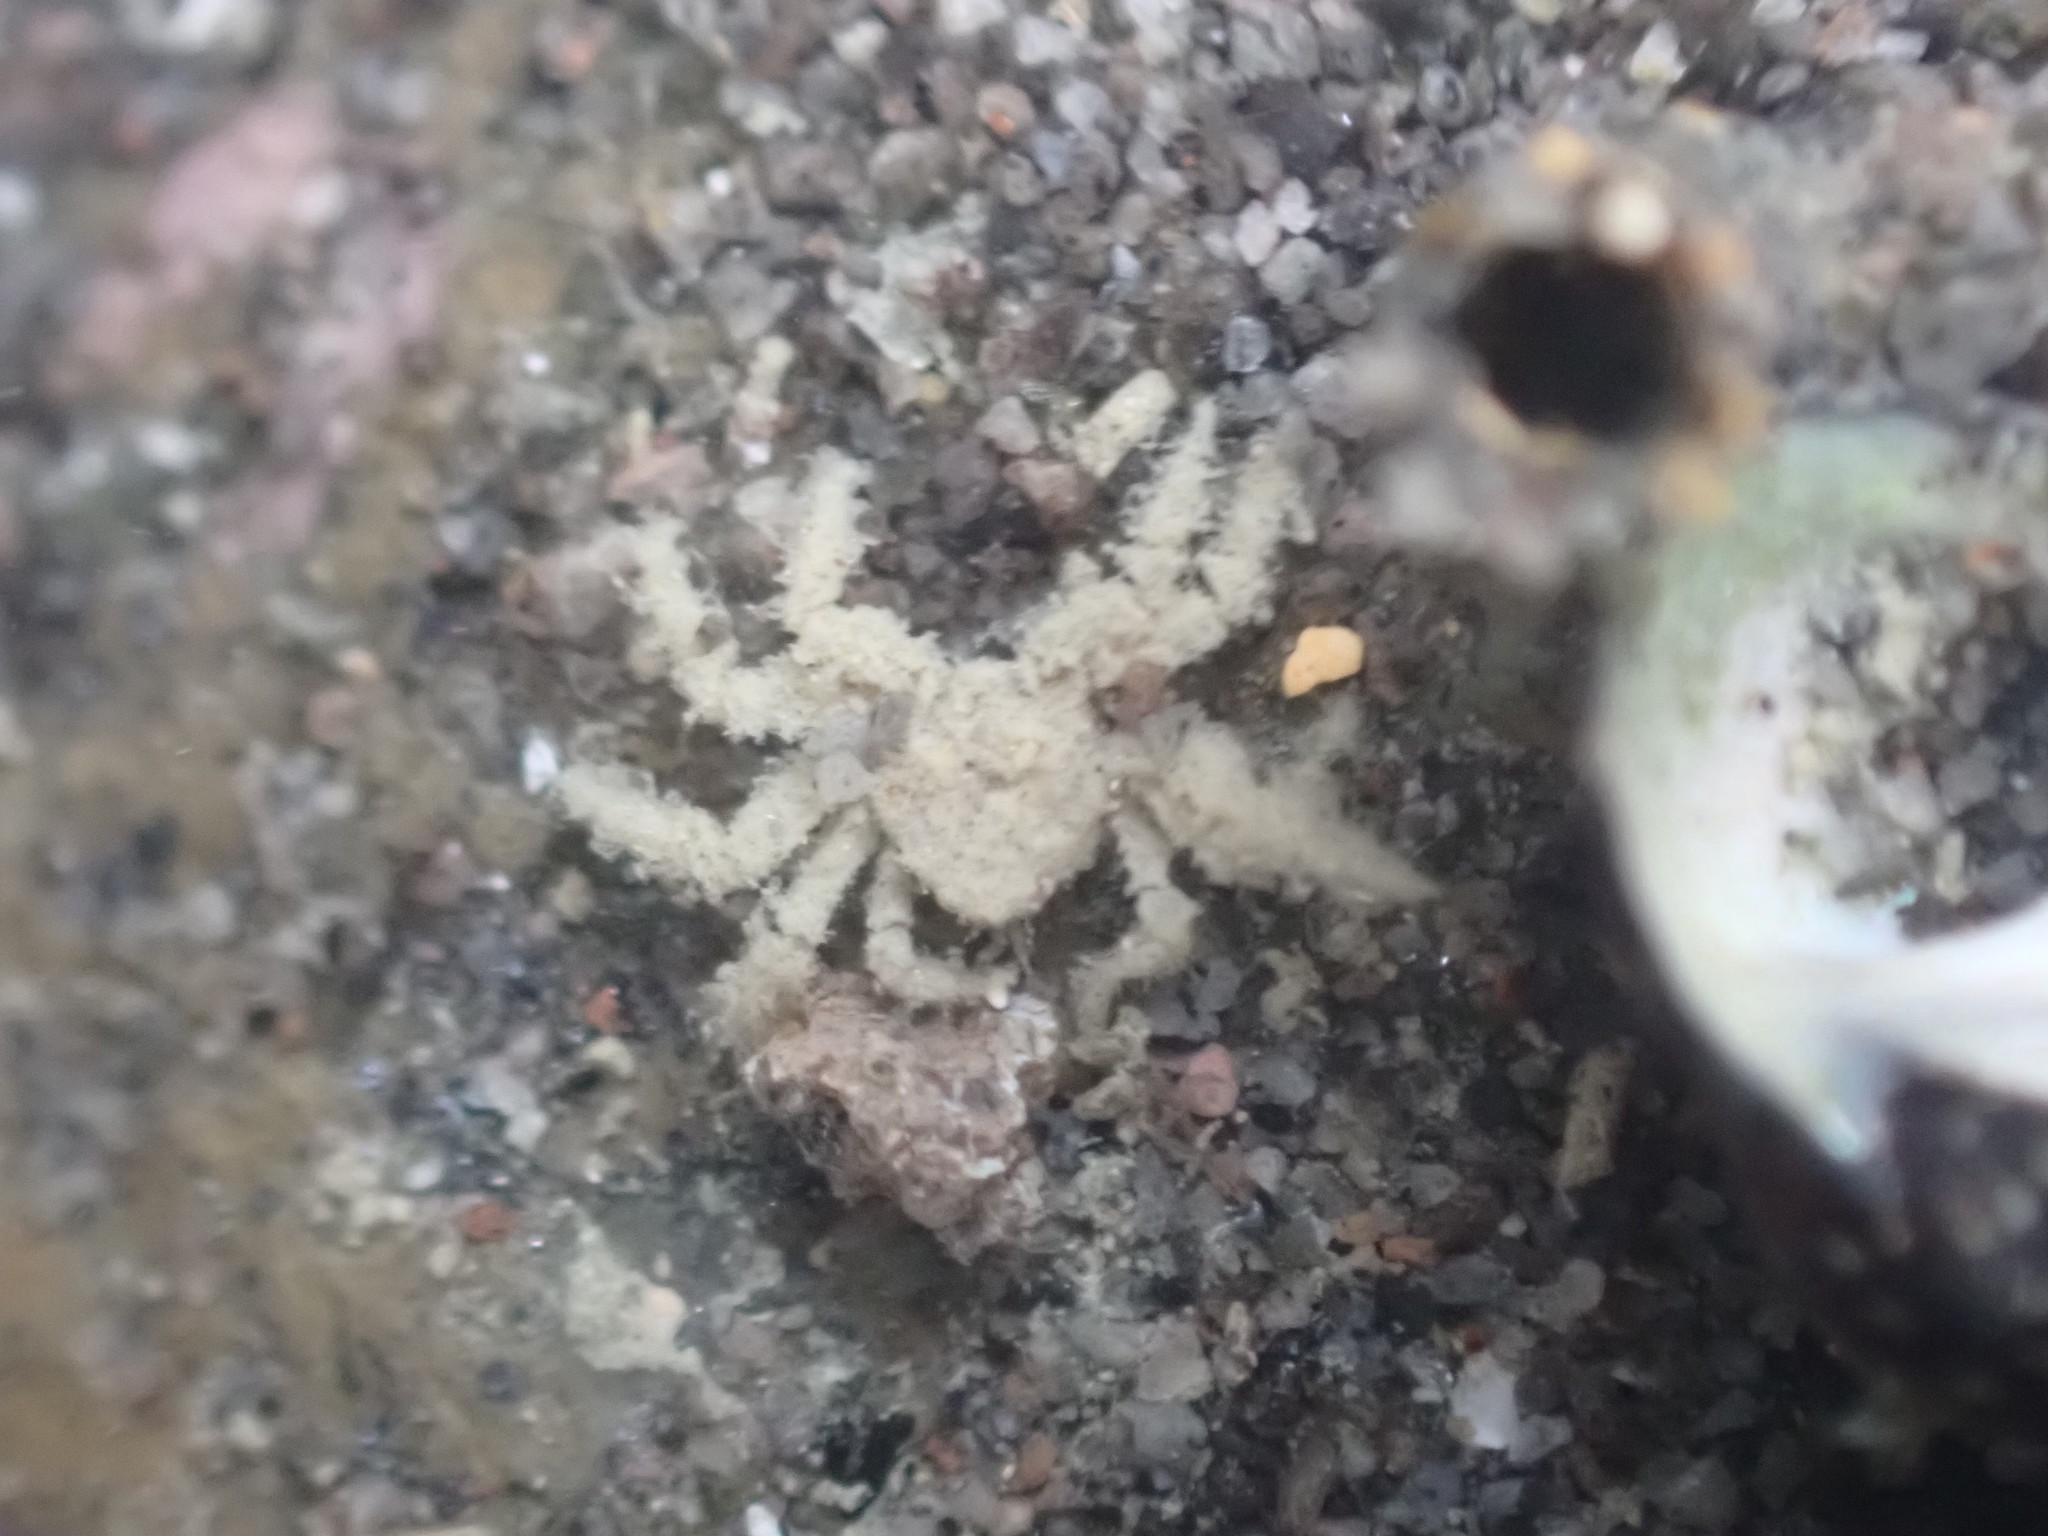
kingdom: Animalia
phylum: Arthropoda
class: Malacostraca
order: Decapoda
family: Hymenosomatidae
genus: Neohymenicus
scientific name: Neohymenicus pubescens
